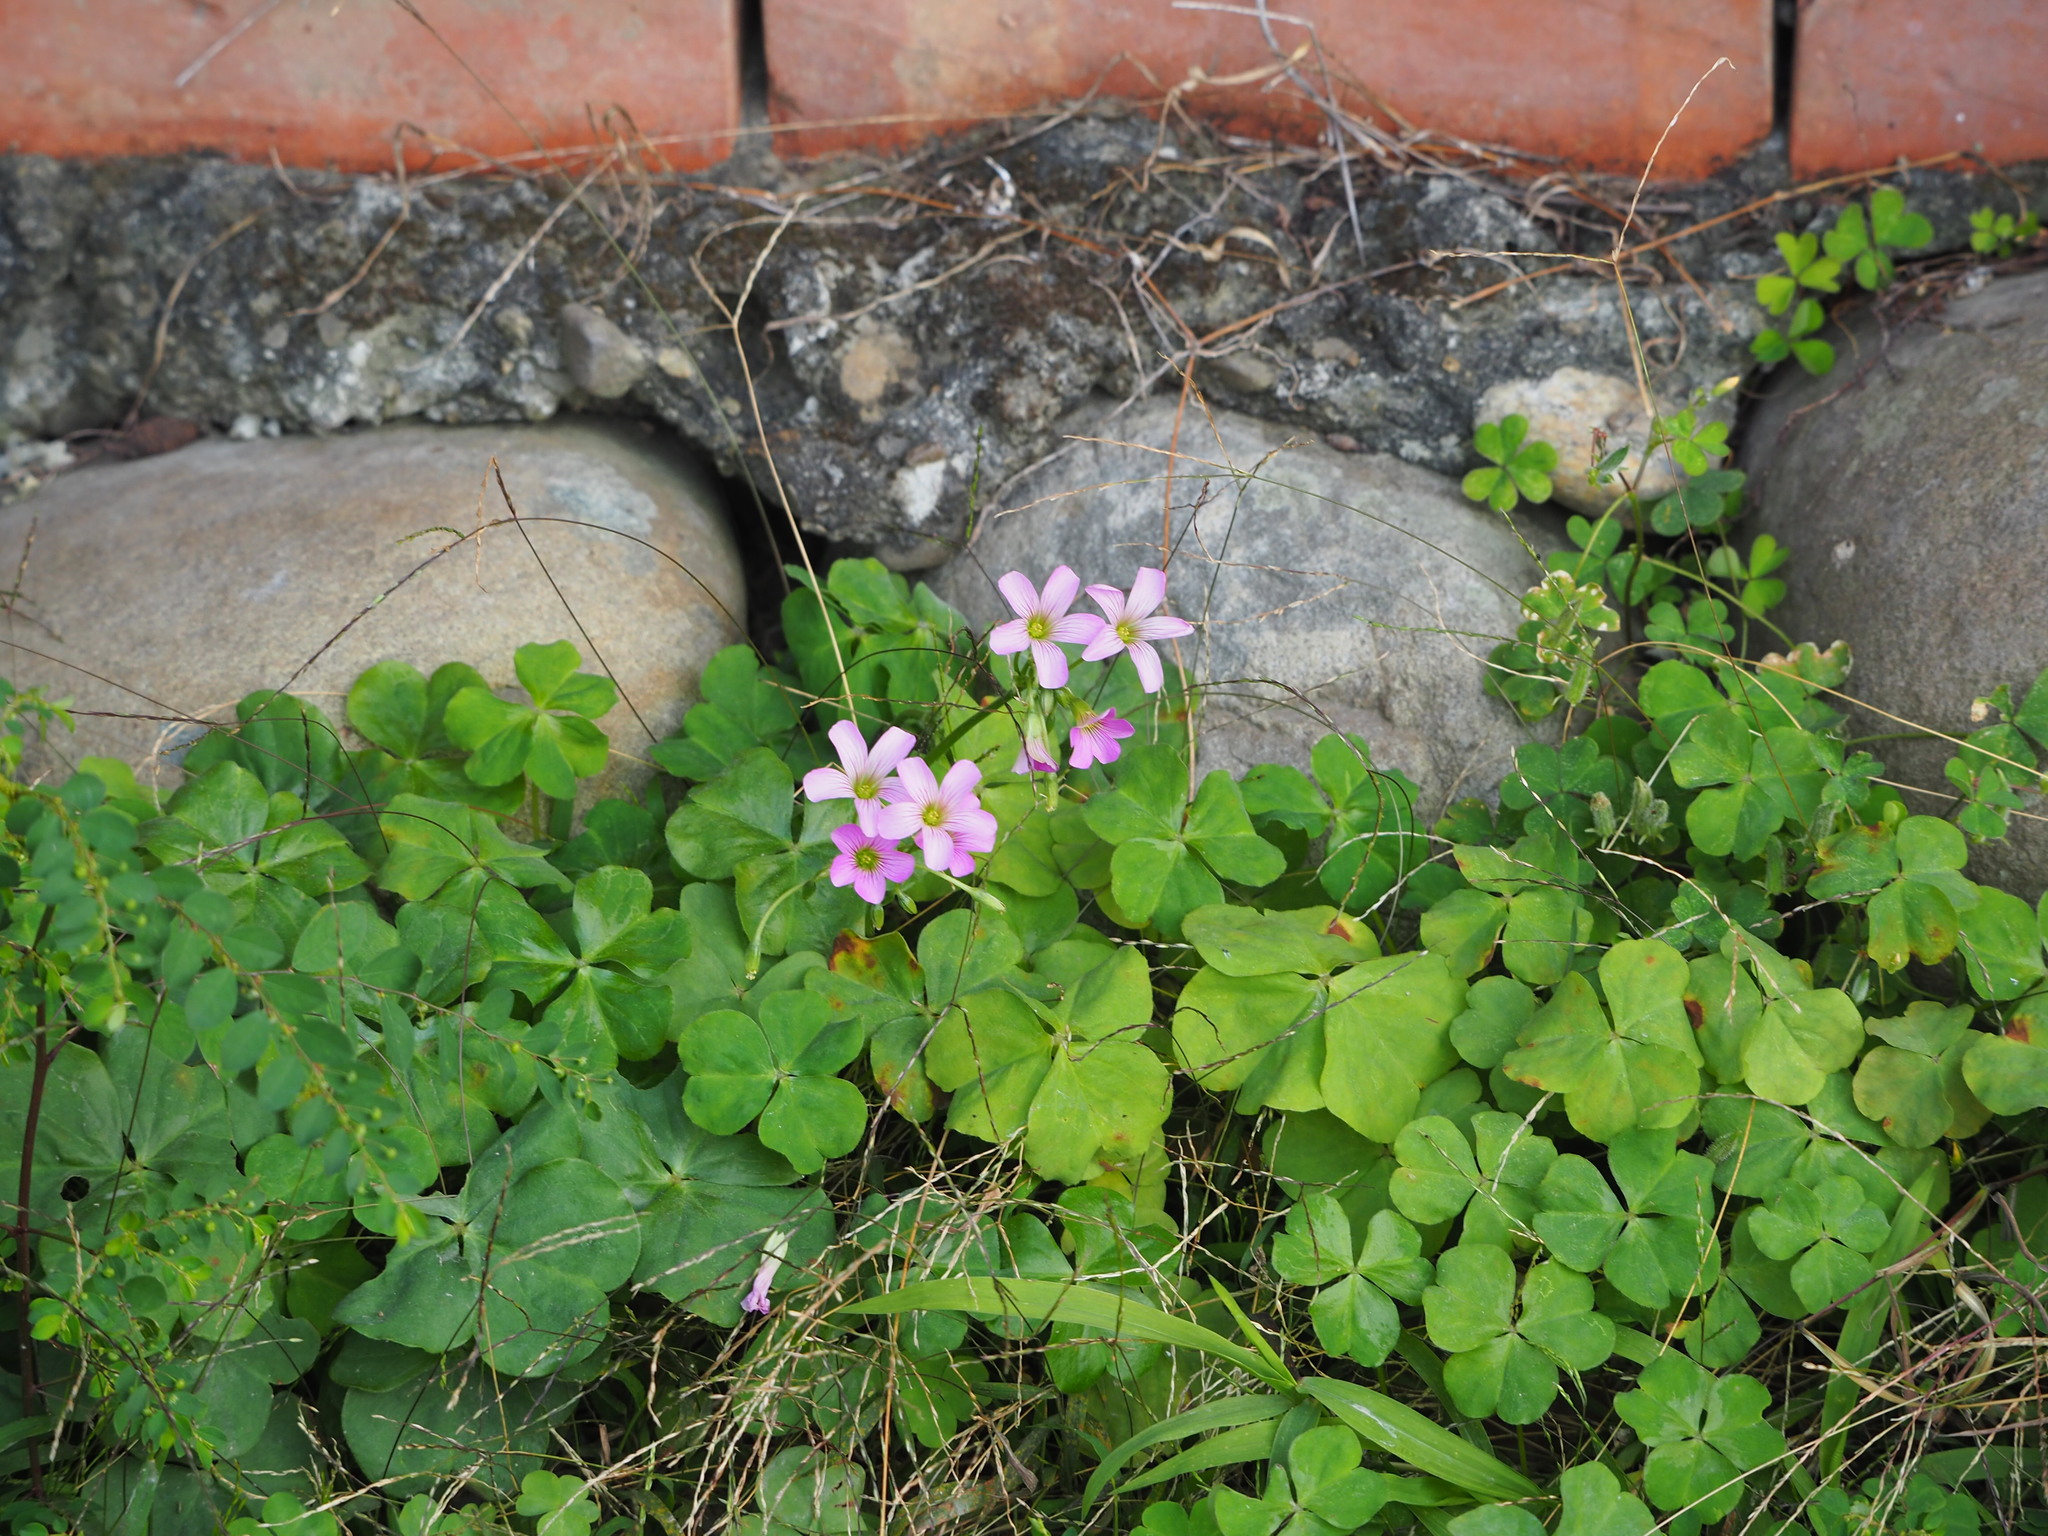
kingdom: Plantae
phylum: Tracheophyta
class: Magnoliopsida
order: Oxalidales
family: Oxalidaceae
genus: Oxalis
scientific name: Oxalis debilis
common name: Large-flowered pink-sorrel
